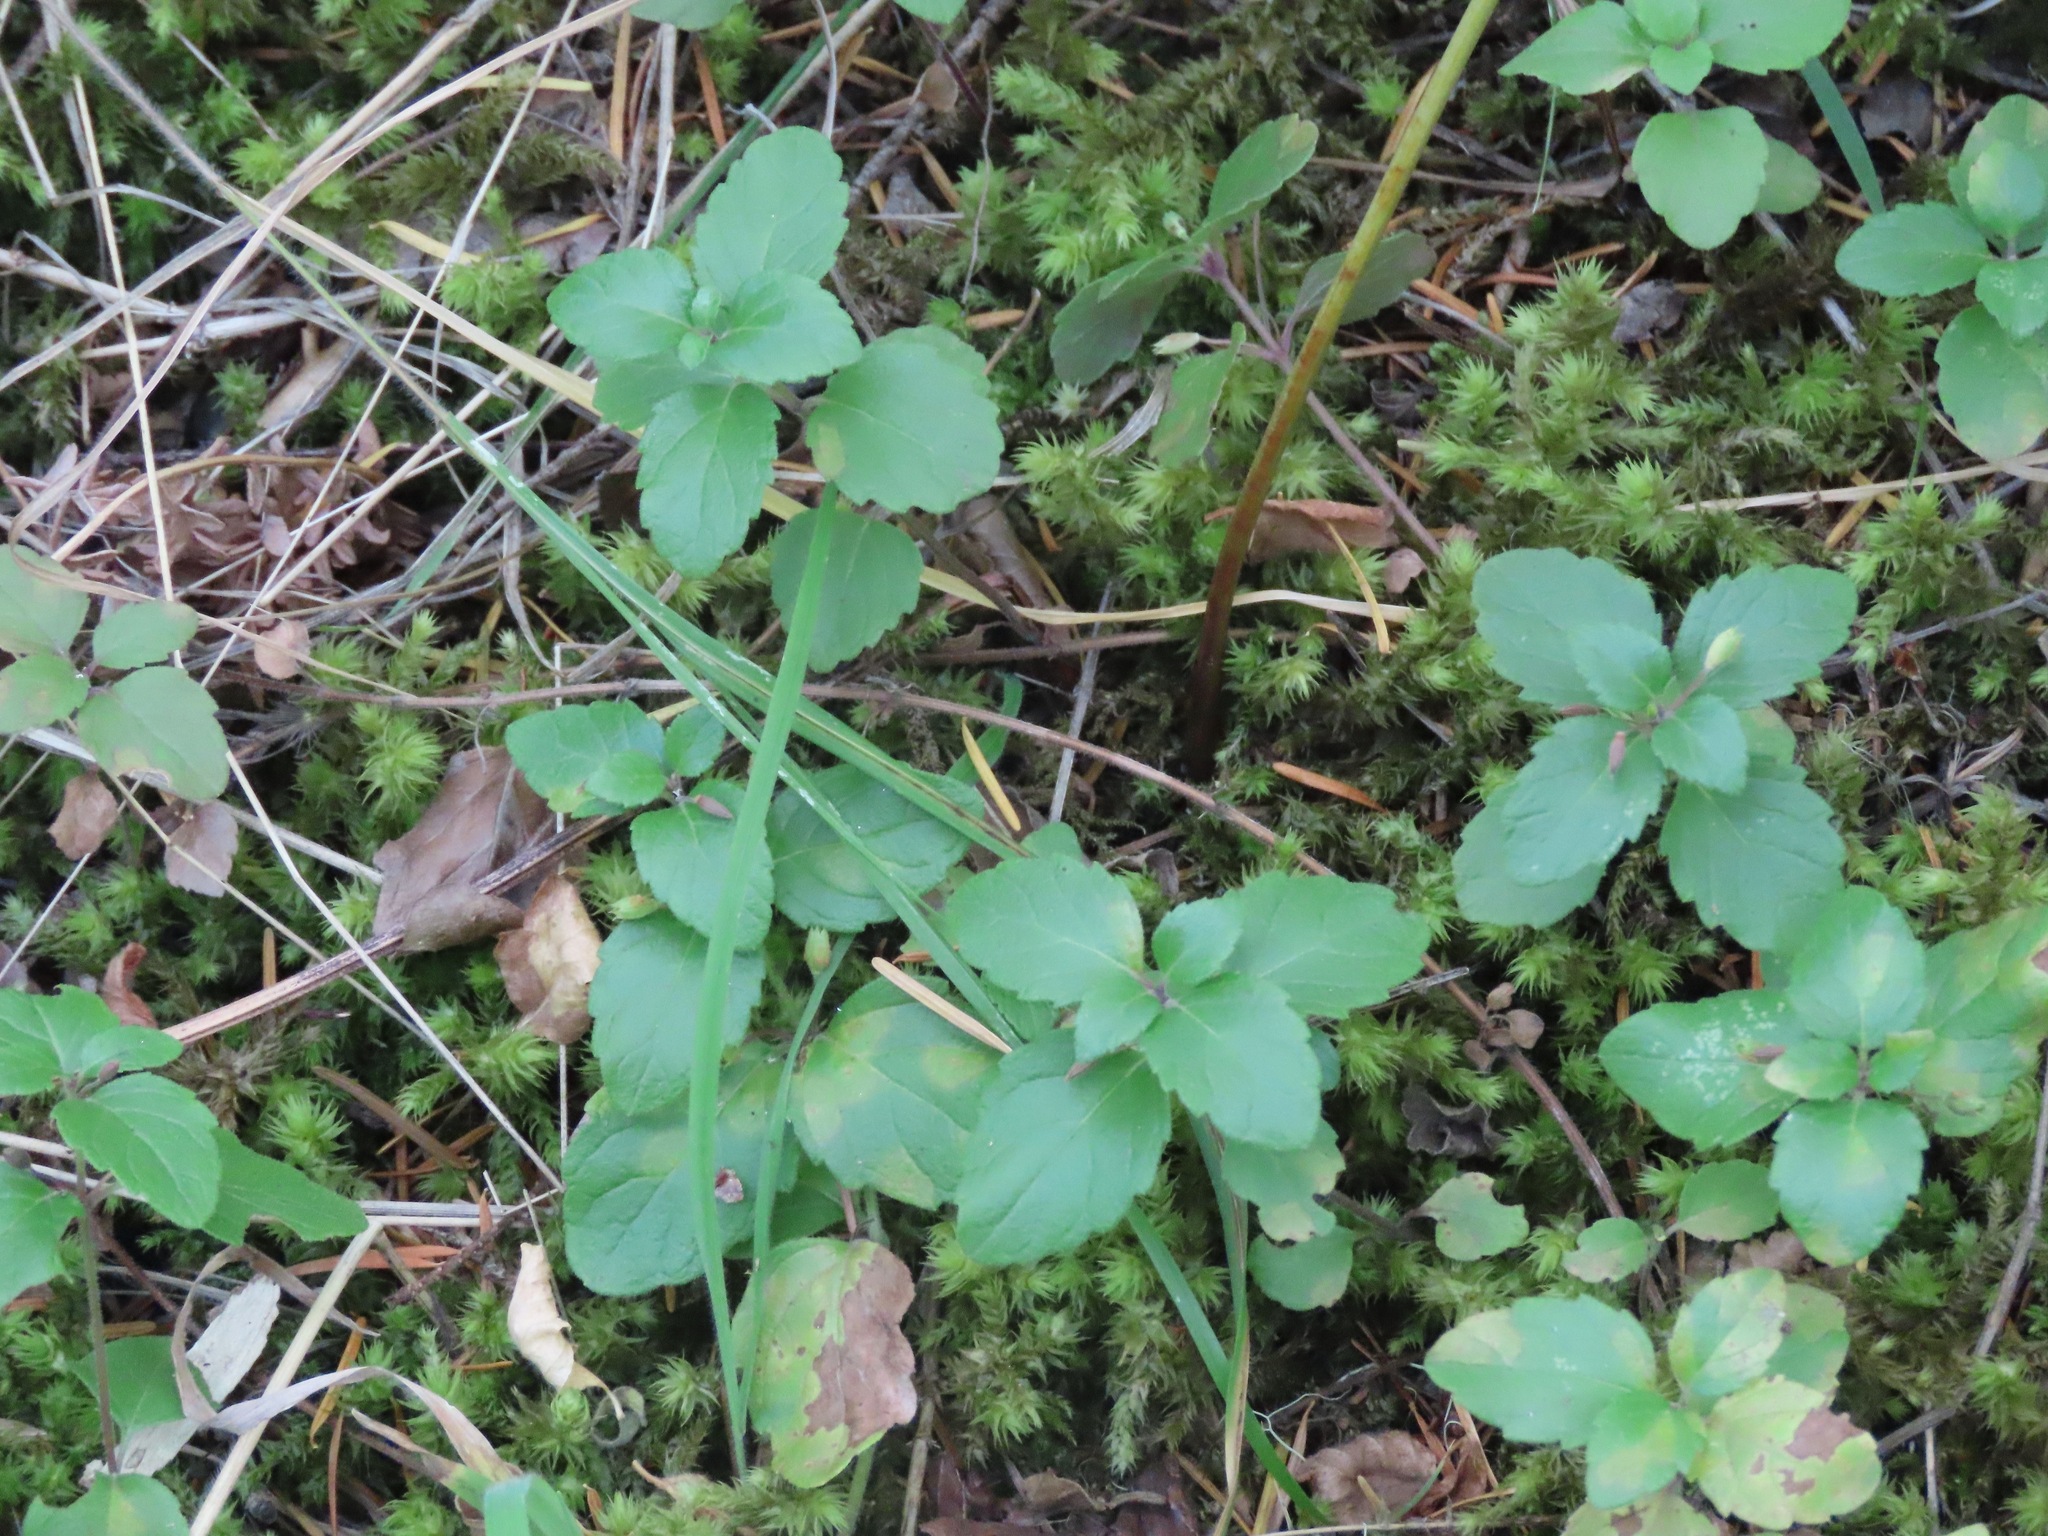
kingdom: Plantae
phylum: Tracheophyta
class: Magnoliopsida
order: Lamiales
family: Lamiaceae
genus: Micromeria
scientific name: Micromeria douglasii
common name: Yerba buena
